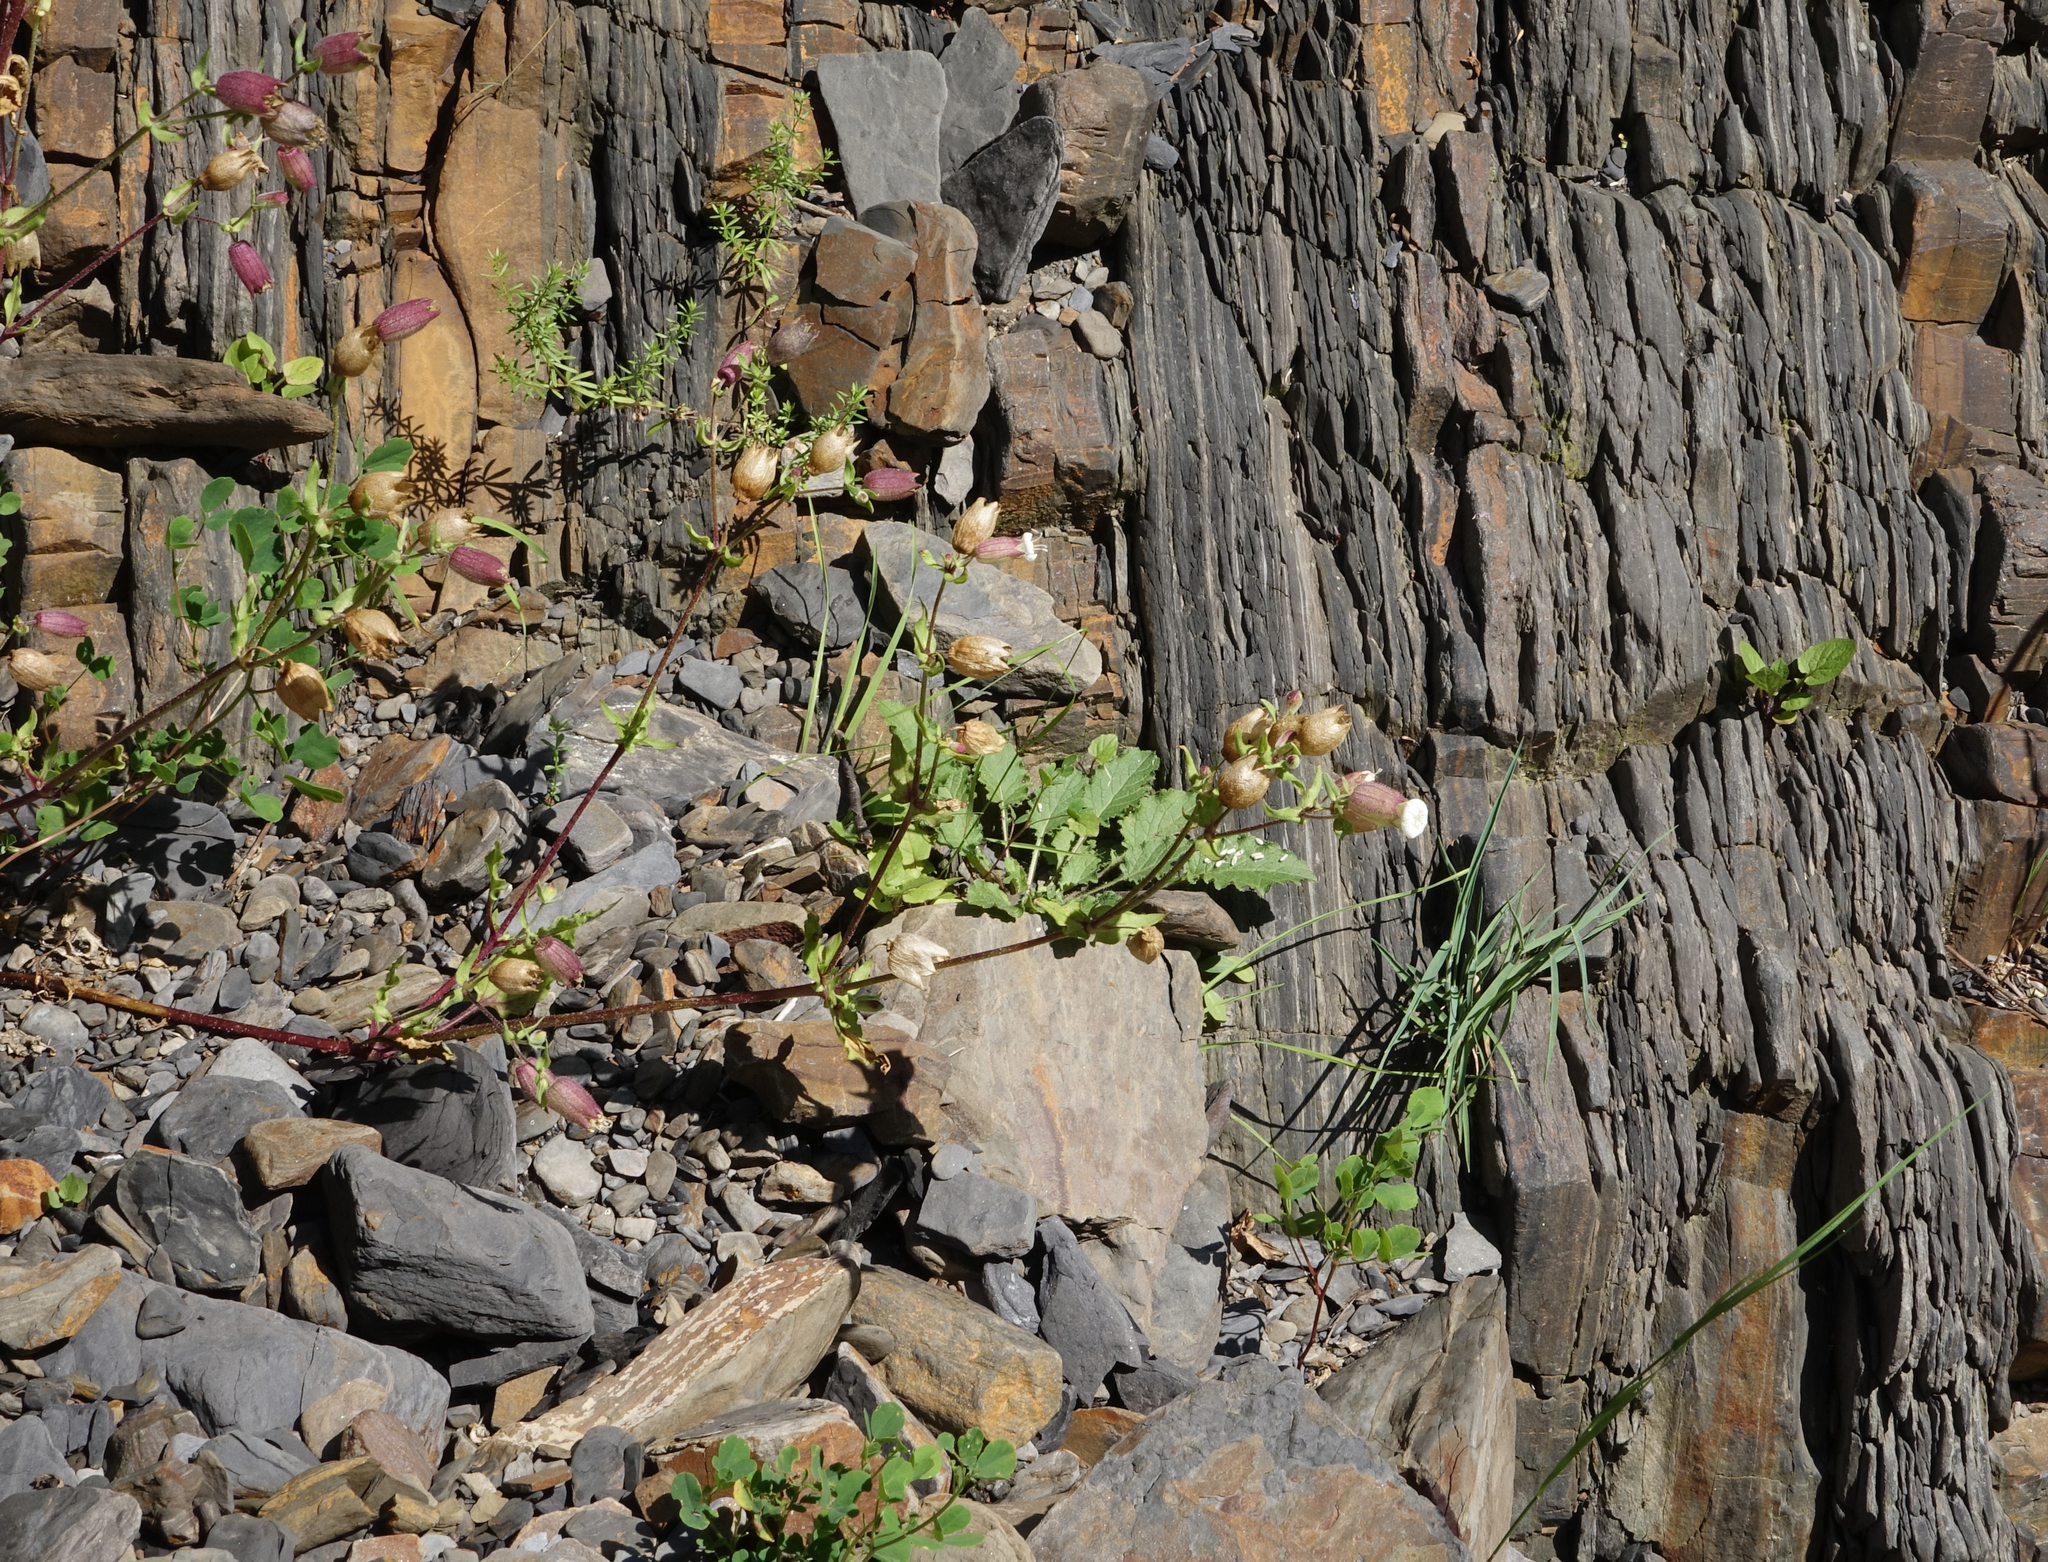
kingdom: Plantae
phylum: Tracheophyta
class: Magnoliopsida
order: Caryophyllales
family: Caryophyllaceae
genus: Silene
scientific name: Silene lacera
